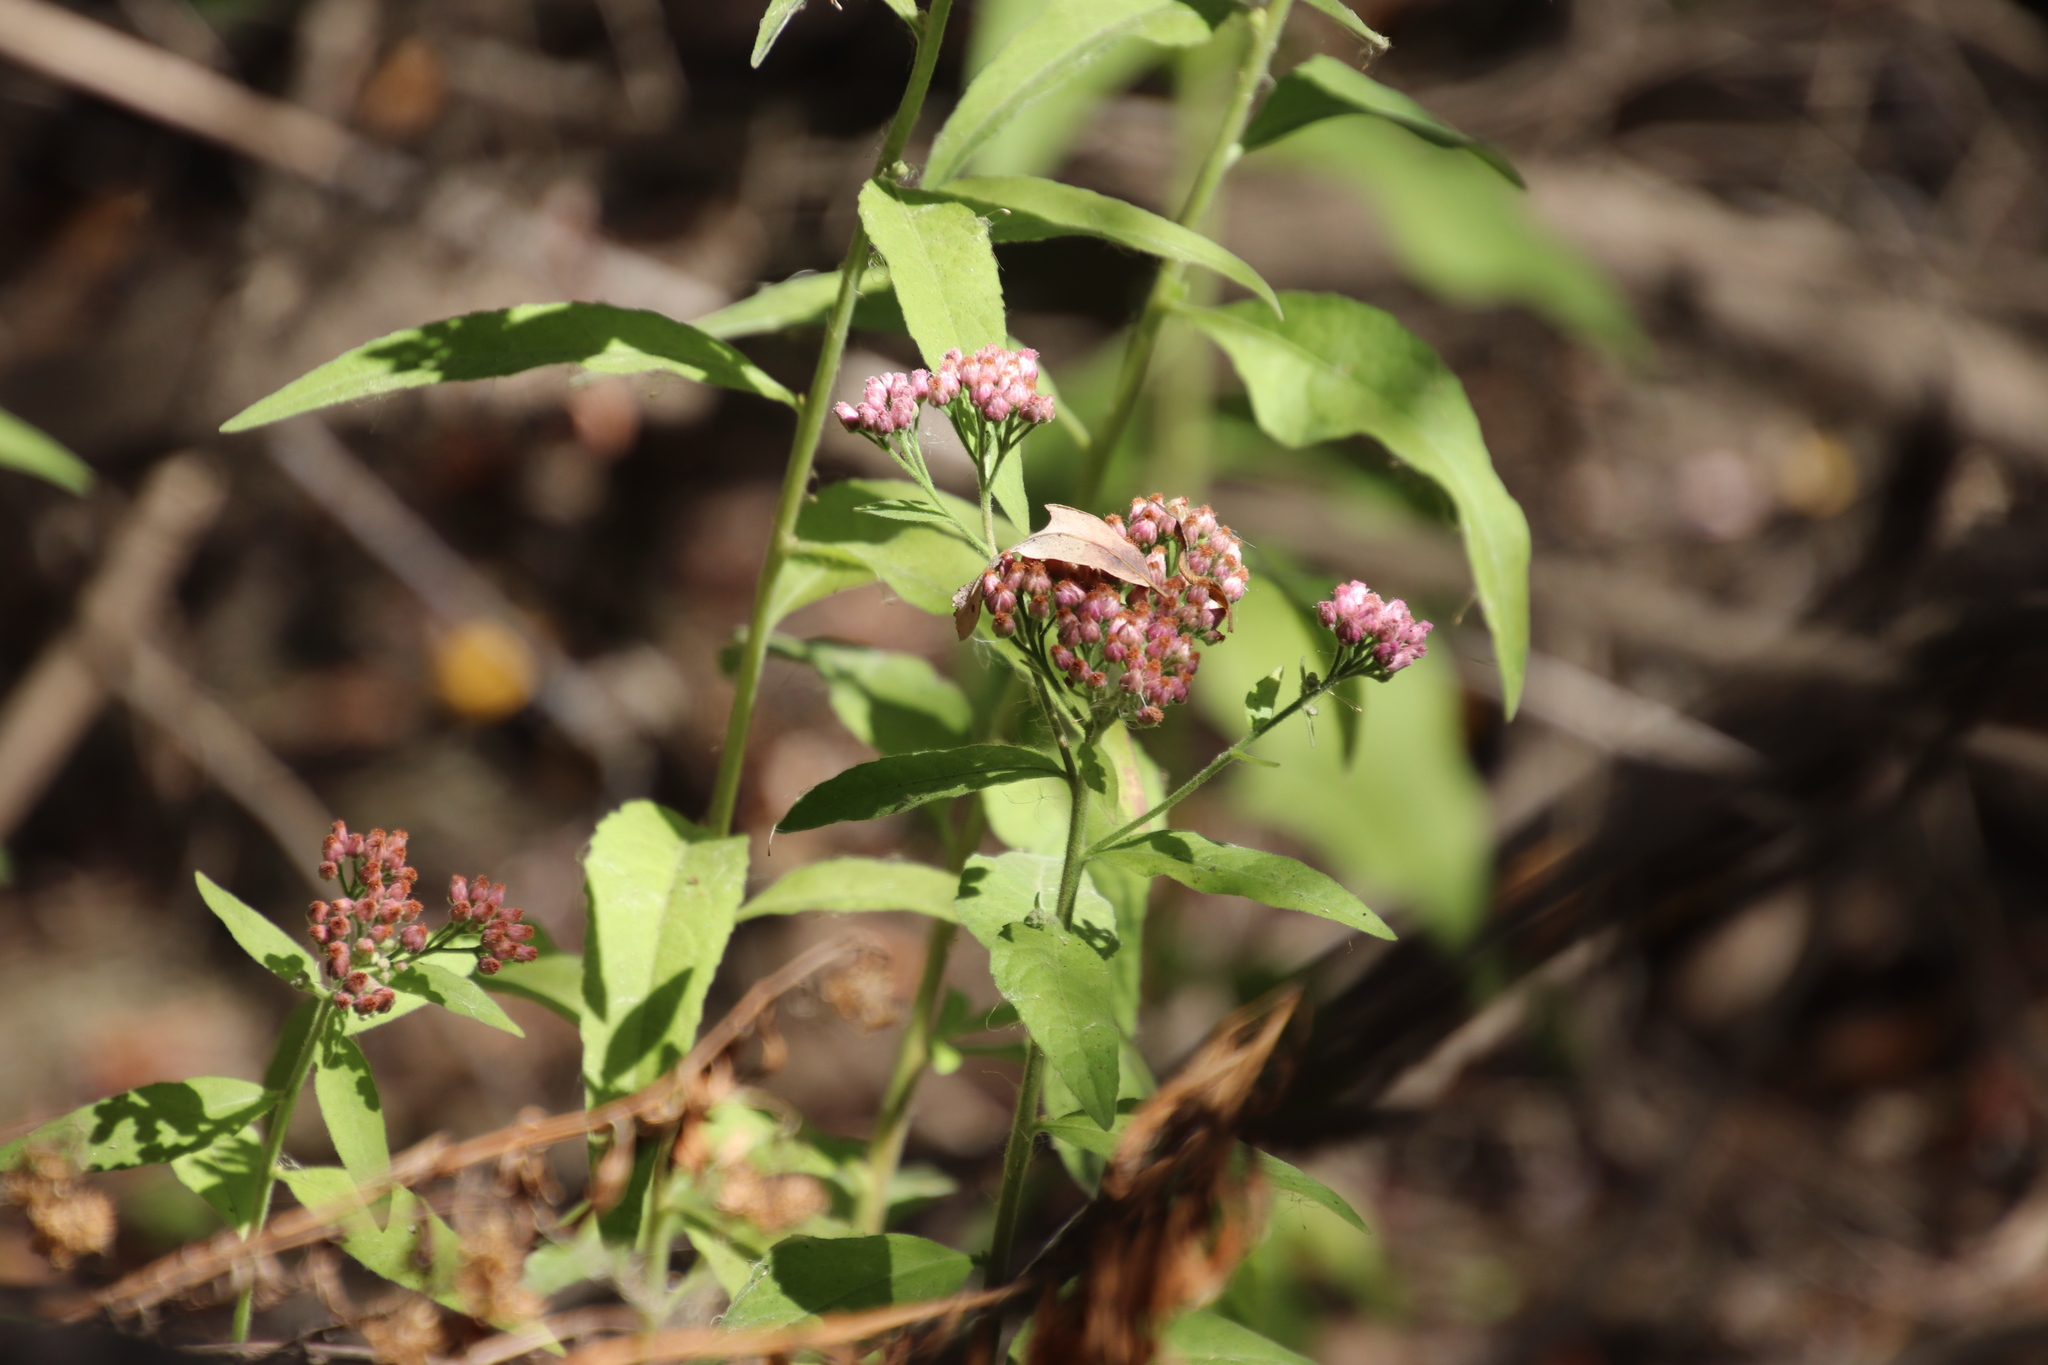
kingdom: Plantae
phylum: Tracheophyta
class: Magnoliopsida
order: Asterales
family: Asteraceae
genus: Pluchea
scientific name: Pluchea odorata
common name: Saltmarsh fleabane
